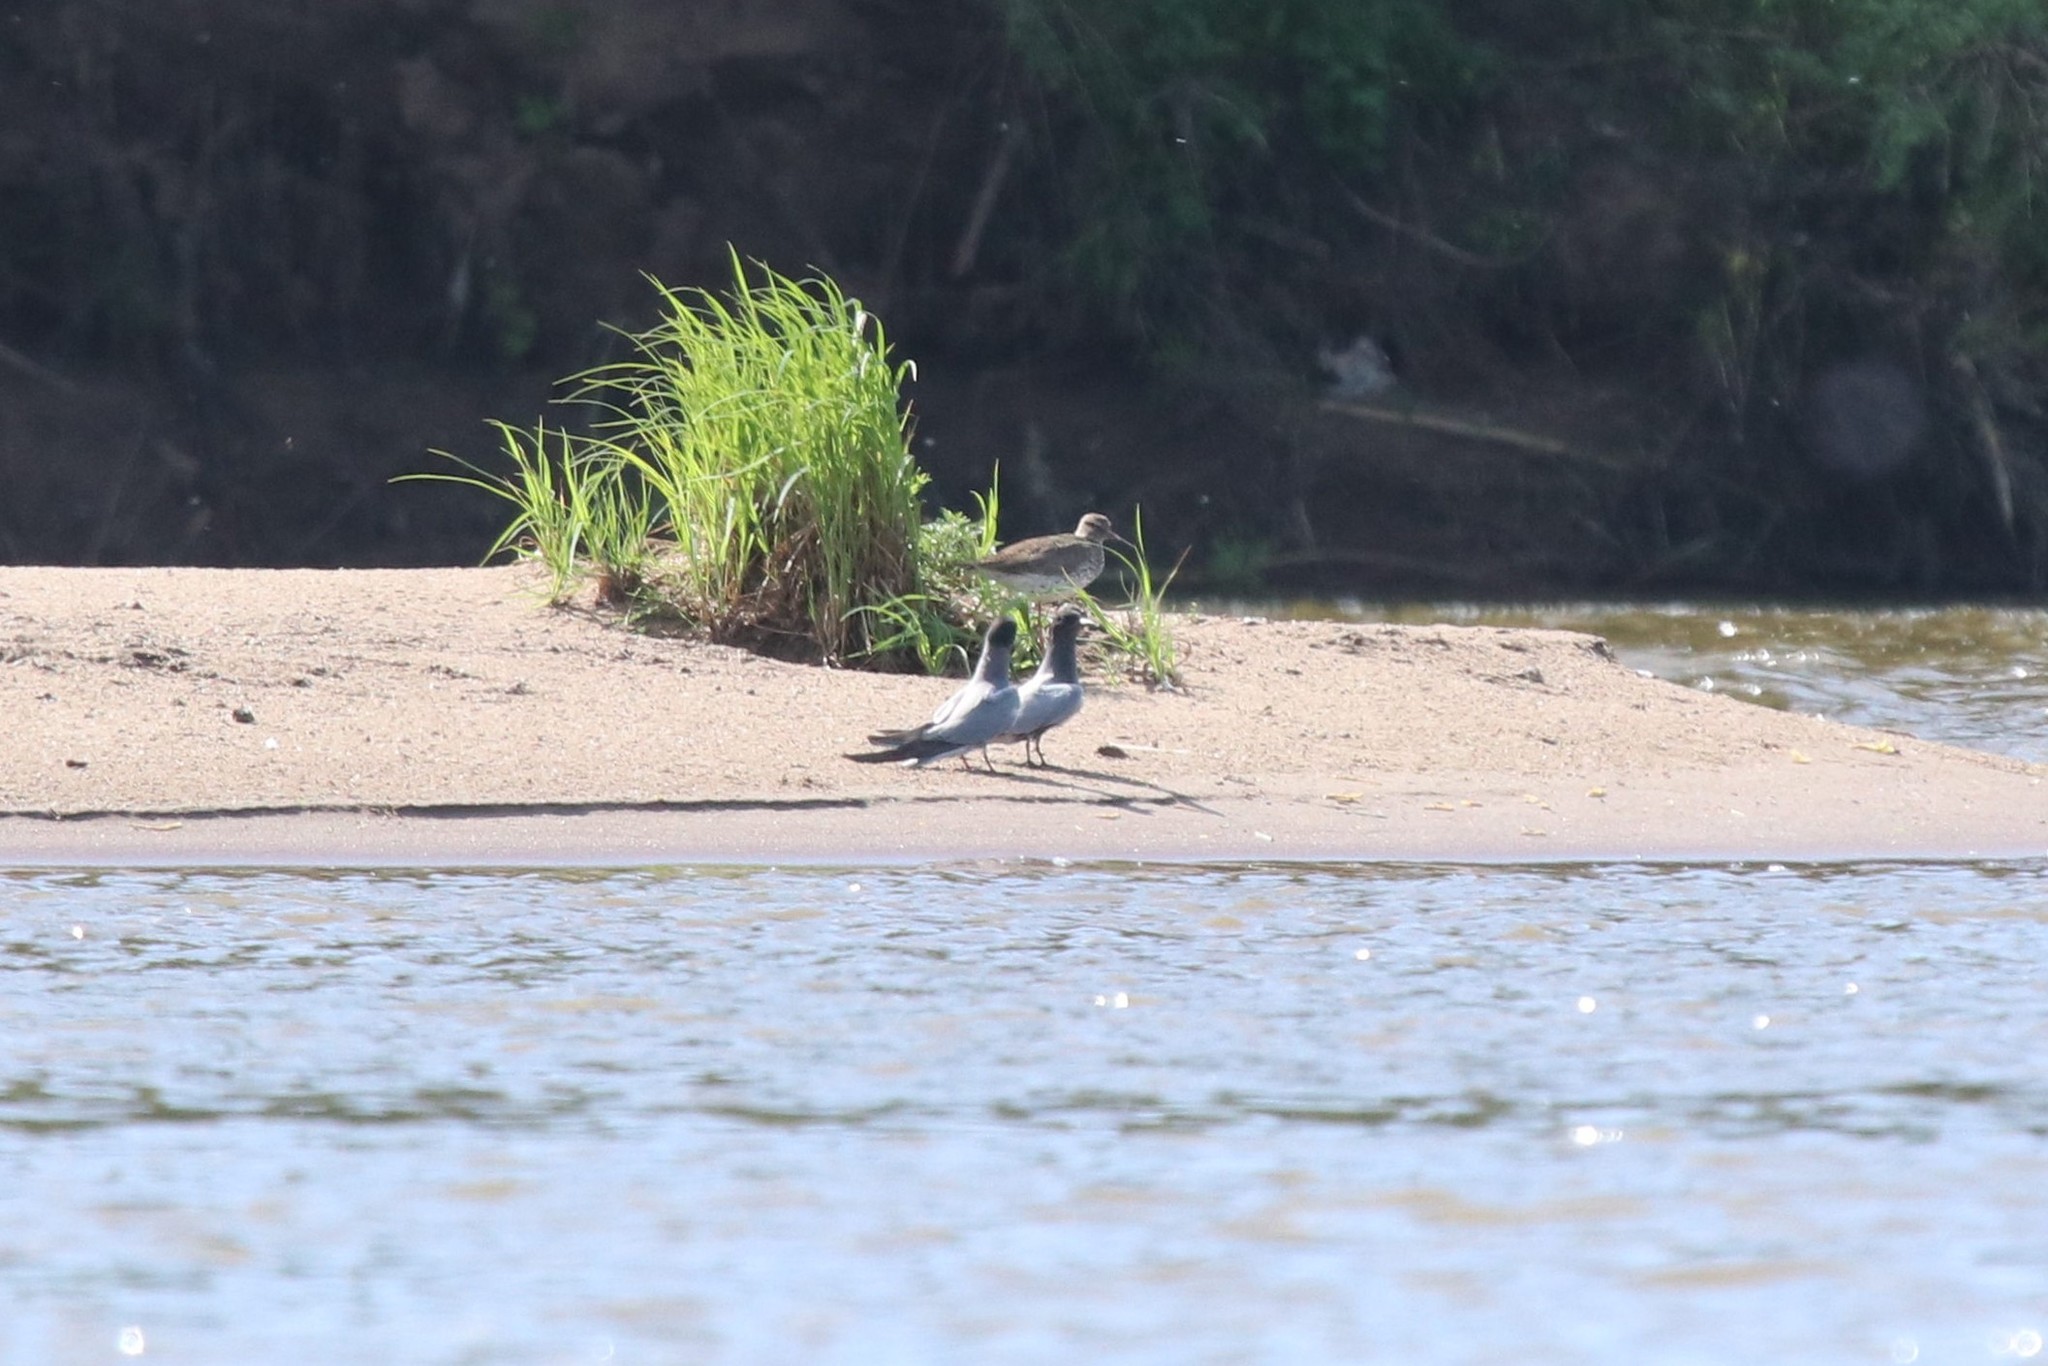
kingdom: Animalia
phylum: Chordata
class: Aves
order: Charadriiformes
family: Laridae
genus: Chlidonias
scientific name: Chlidonias niger
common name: Black tern
